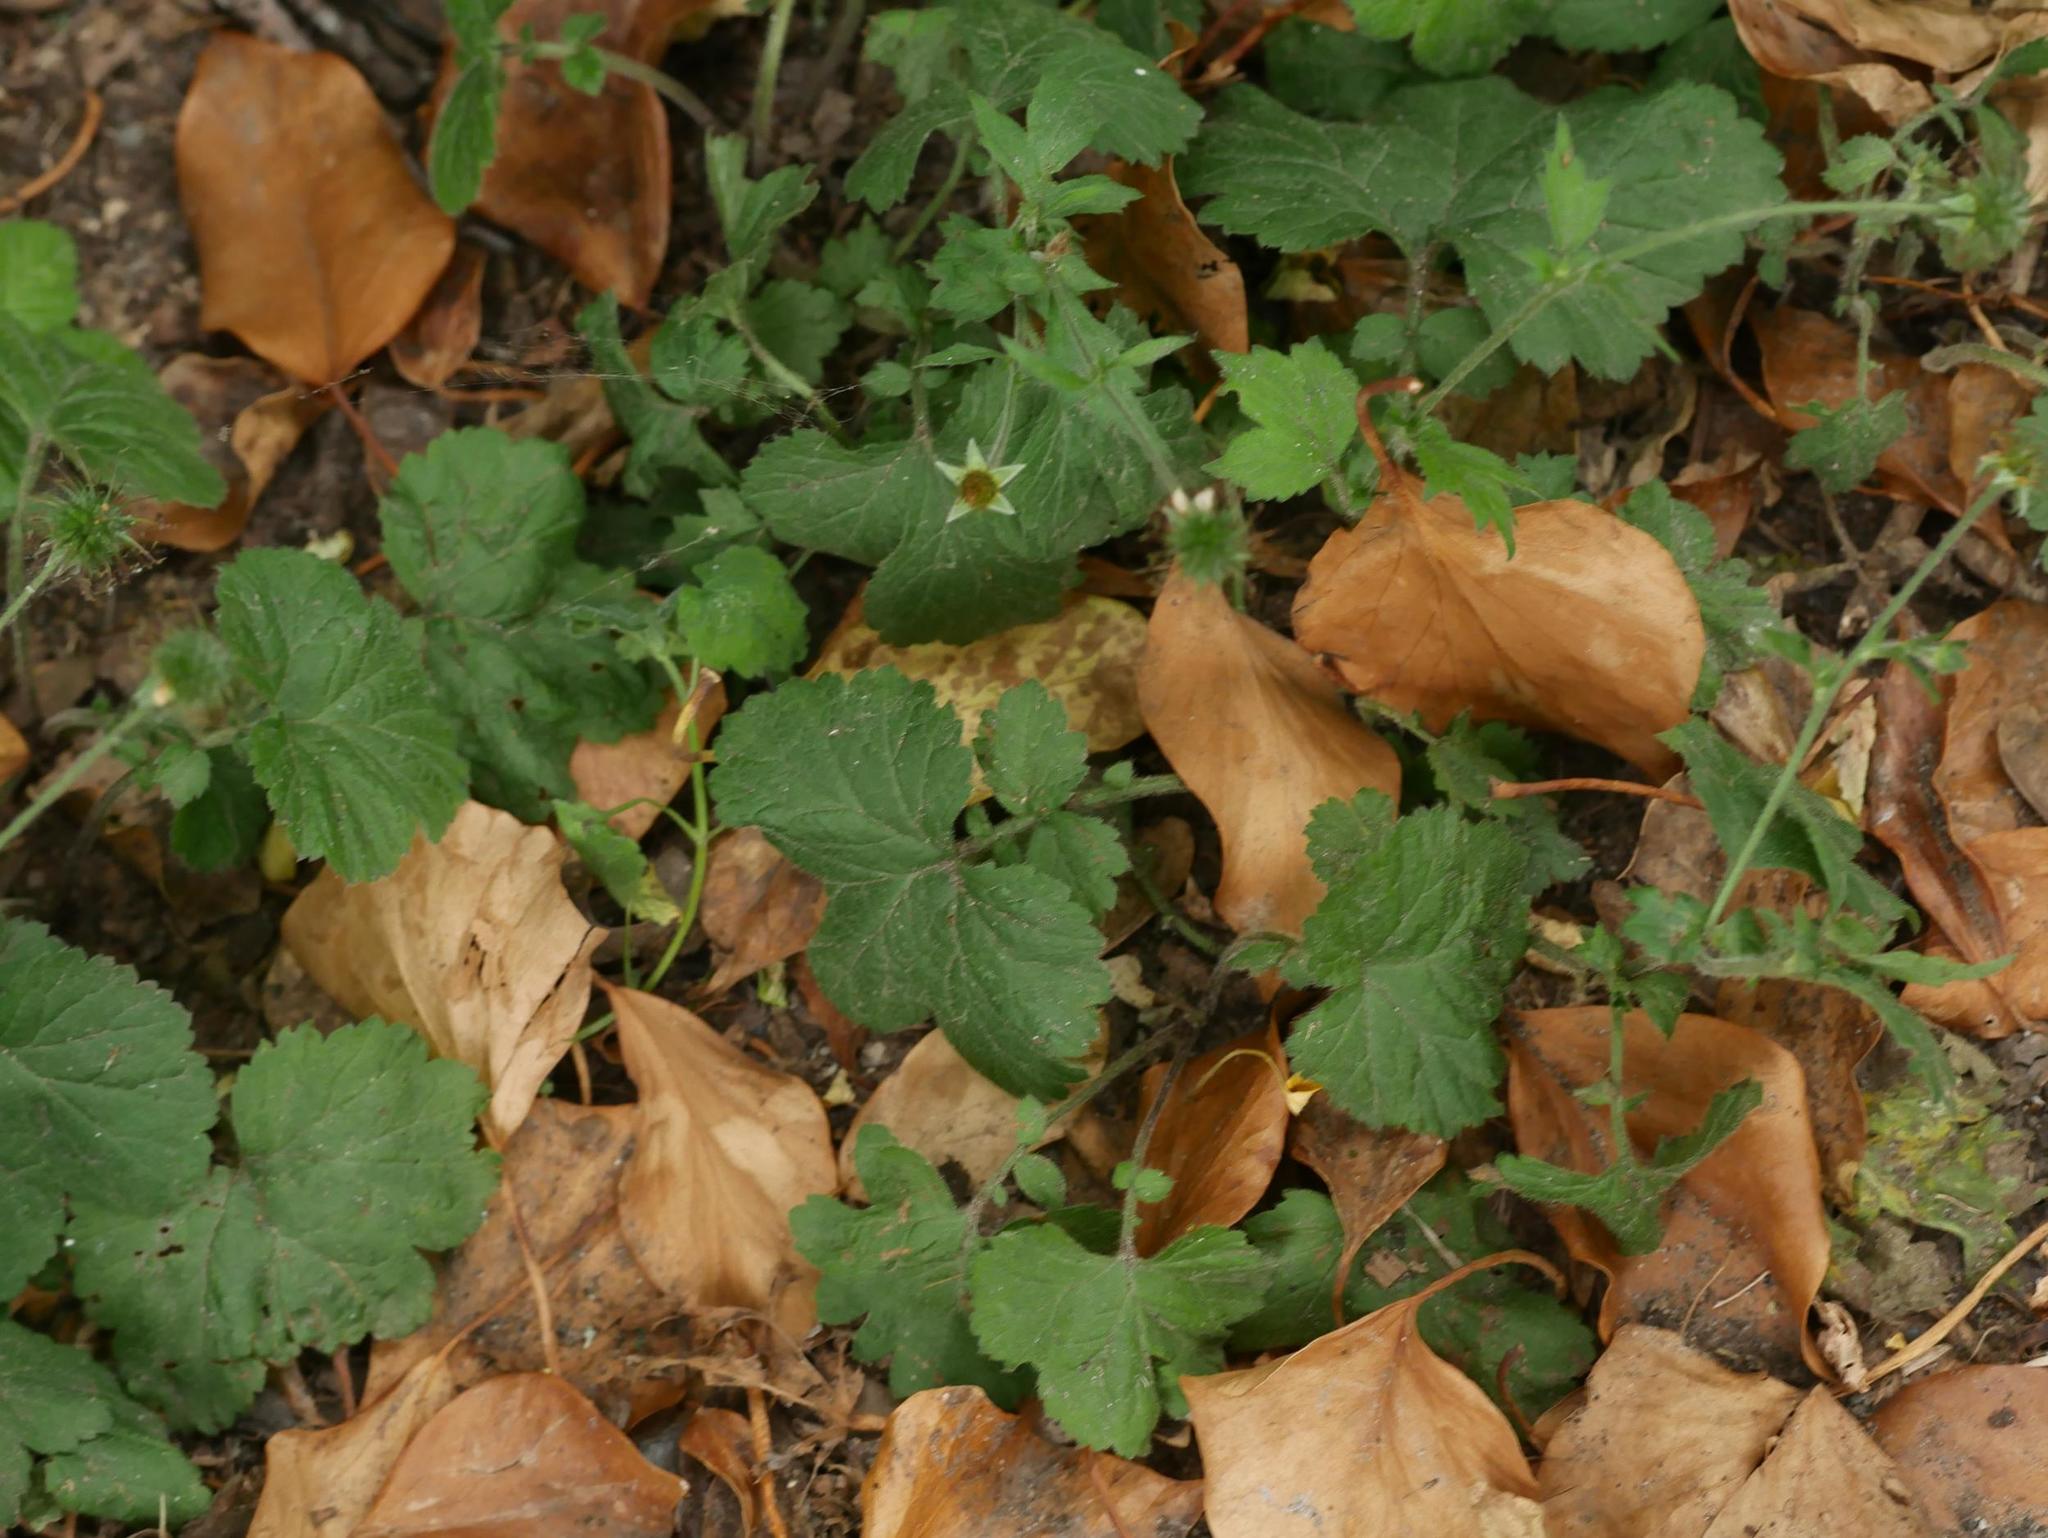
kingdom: Plantae
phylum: Tracheophyta
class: Magnoliopsida
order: Rosales
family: Rosaceae
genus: Geum
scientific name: Geum urbanum
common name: Wood avens
